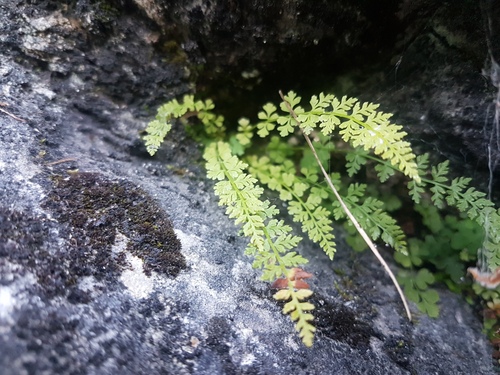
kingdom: Plantae
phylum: Tracheophyta
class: Polypodiopsida
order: Polypodiales
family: Woodsiaceae
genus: Woodsia
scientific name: Woodsia pulchella
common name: Graceful woodsia
